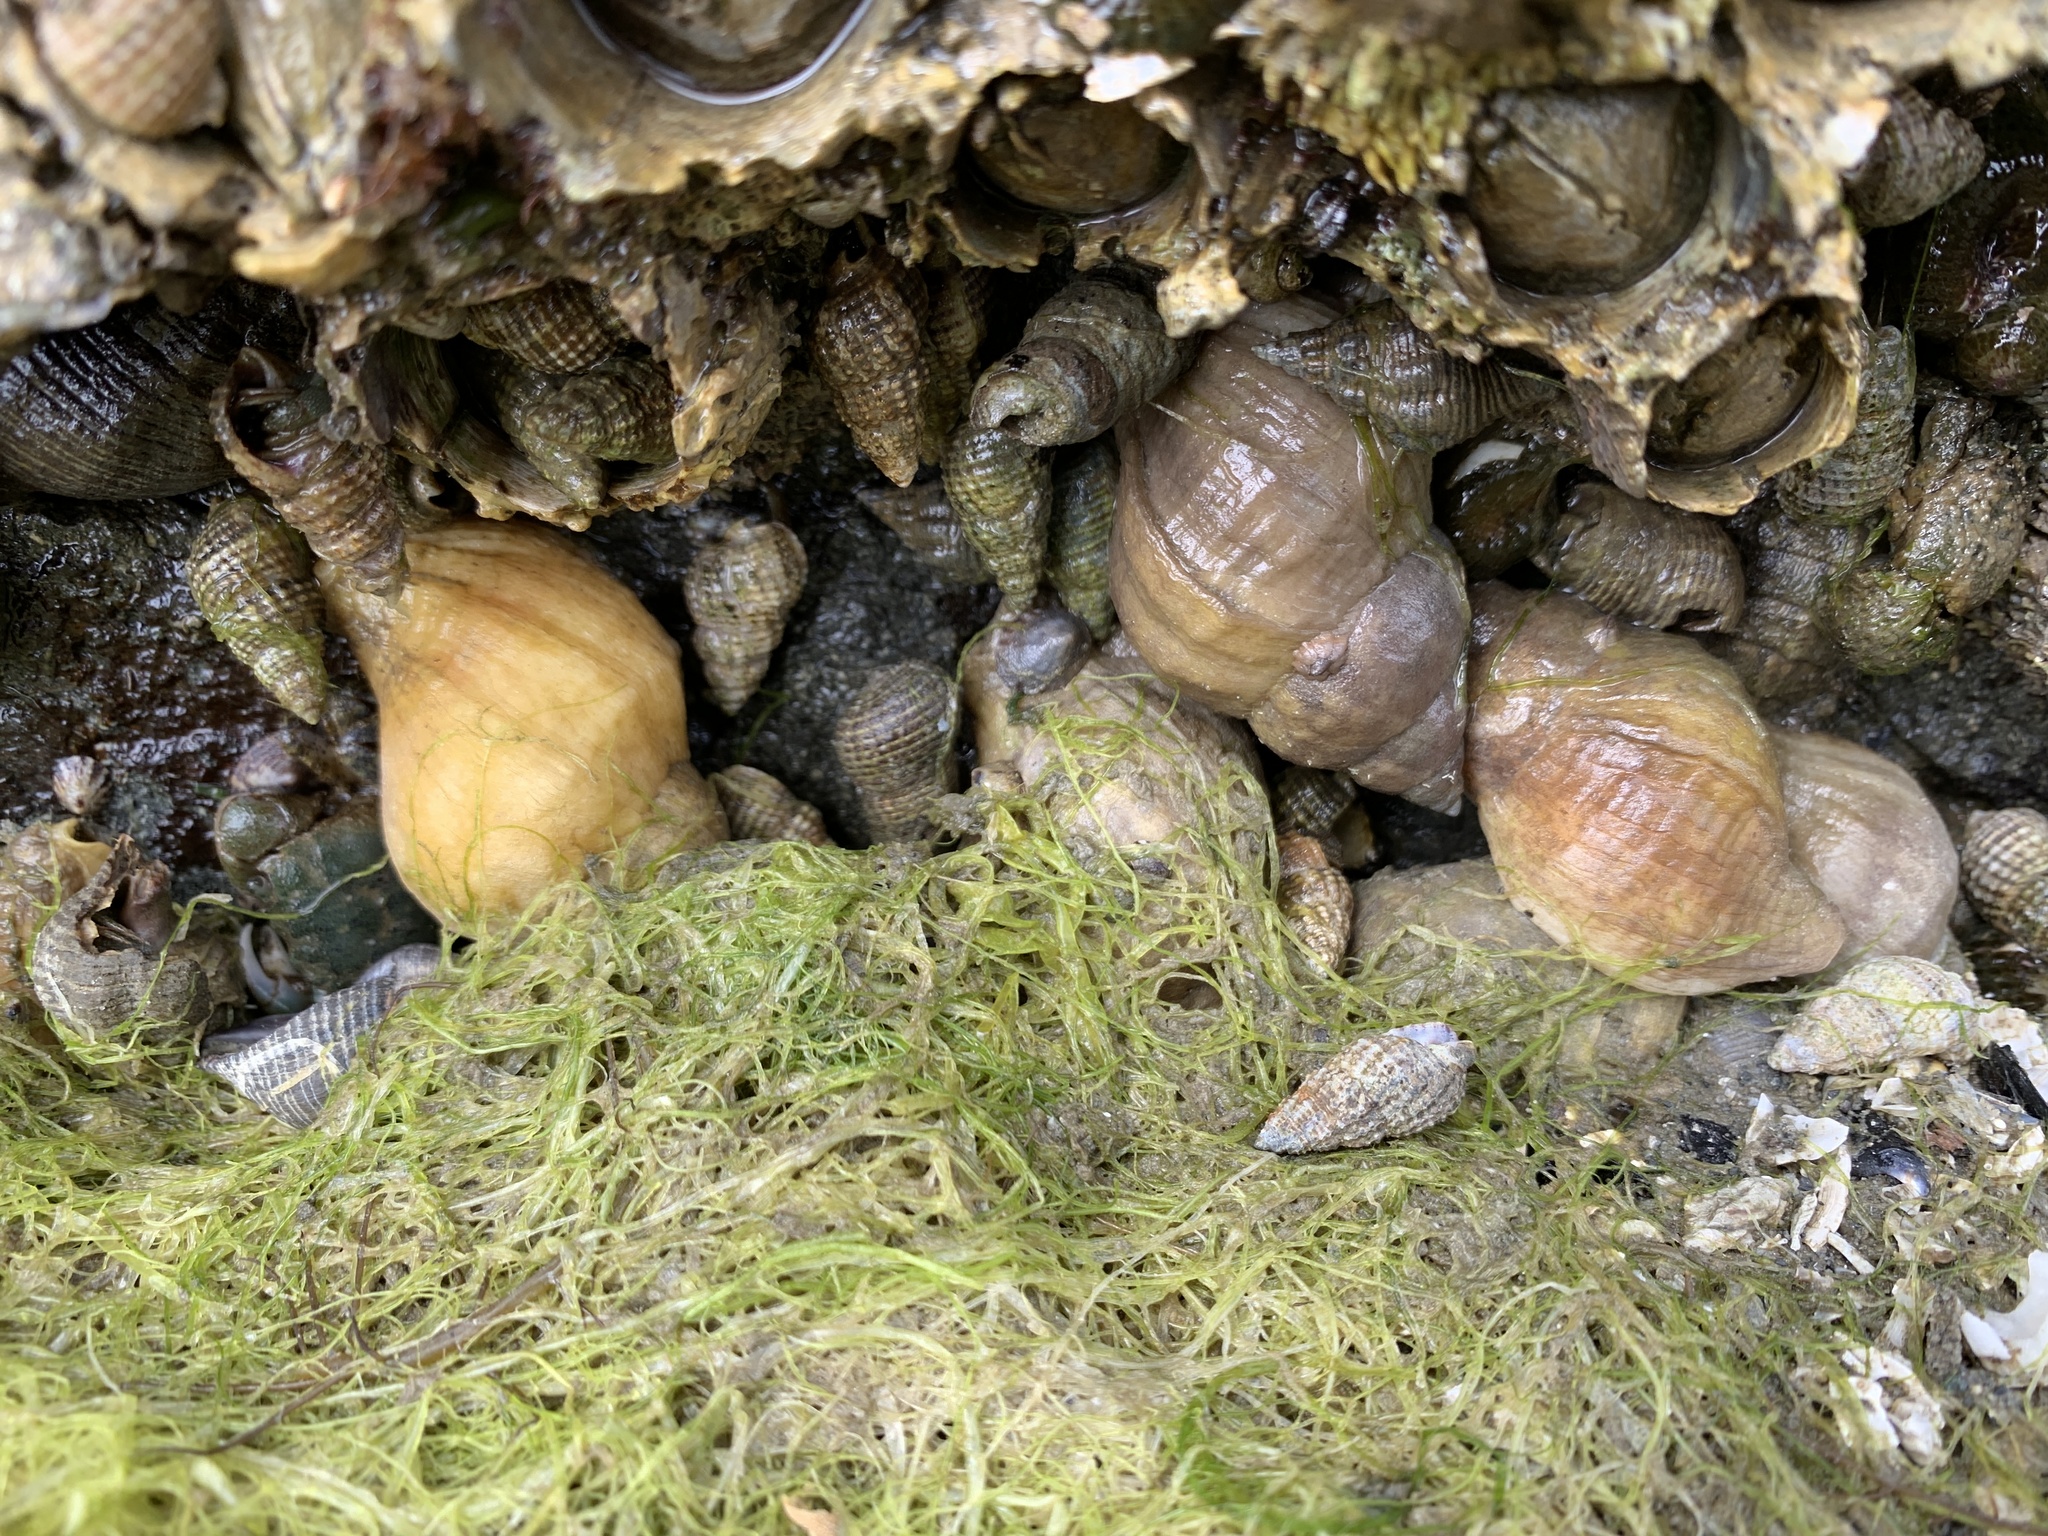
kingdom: Animalia
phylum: Mollusca
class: Gastropoda
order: Neogastropoda
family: Muricidae
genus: Nucella
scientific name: Nucella lamellosa
